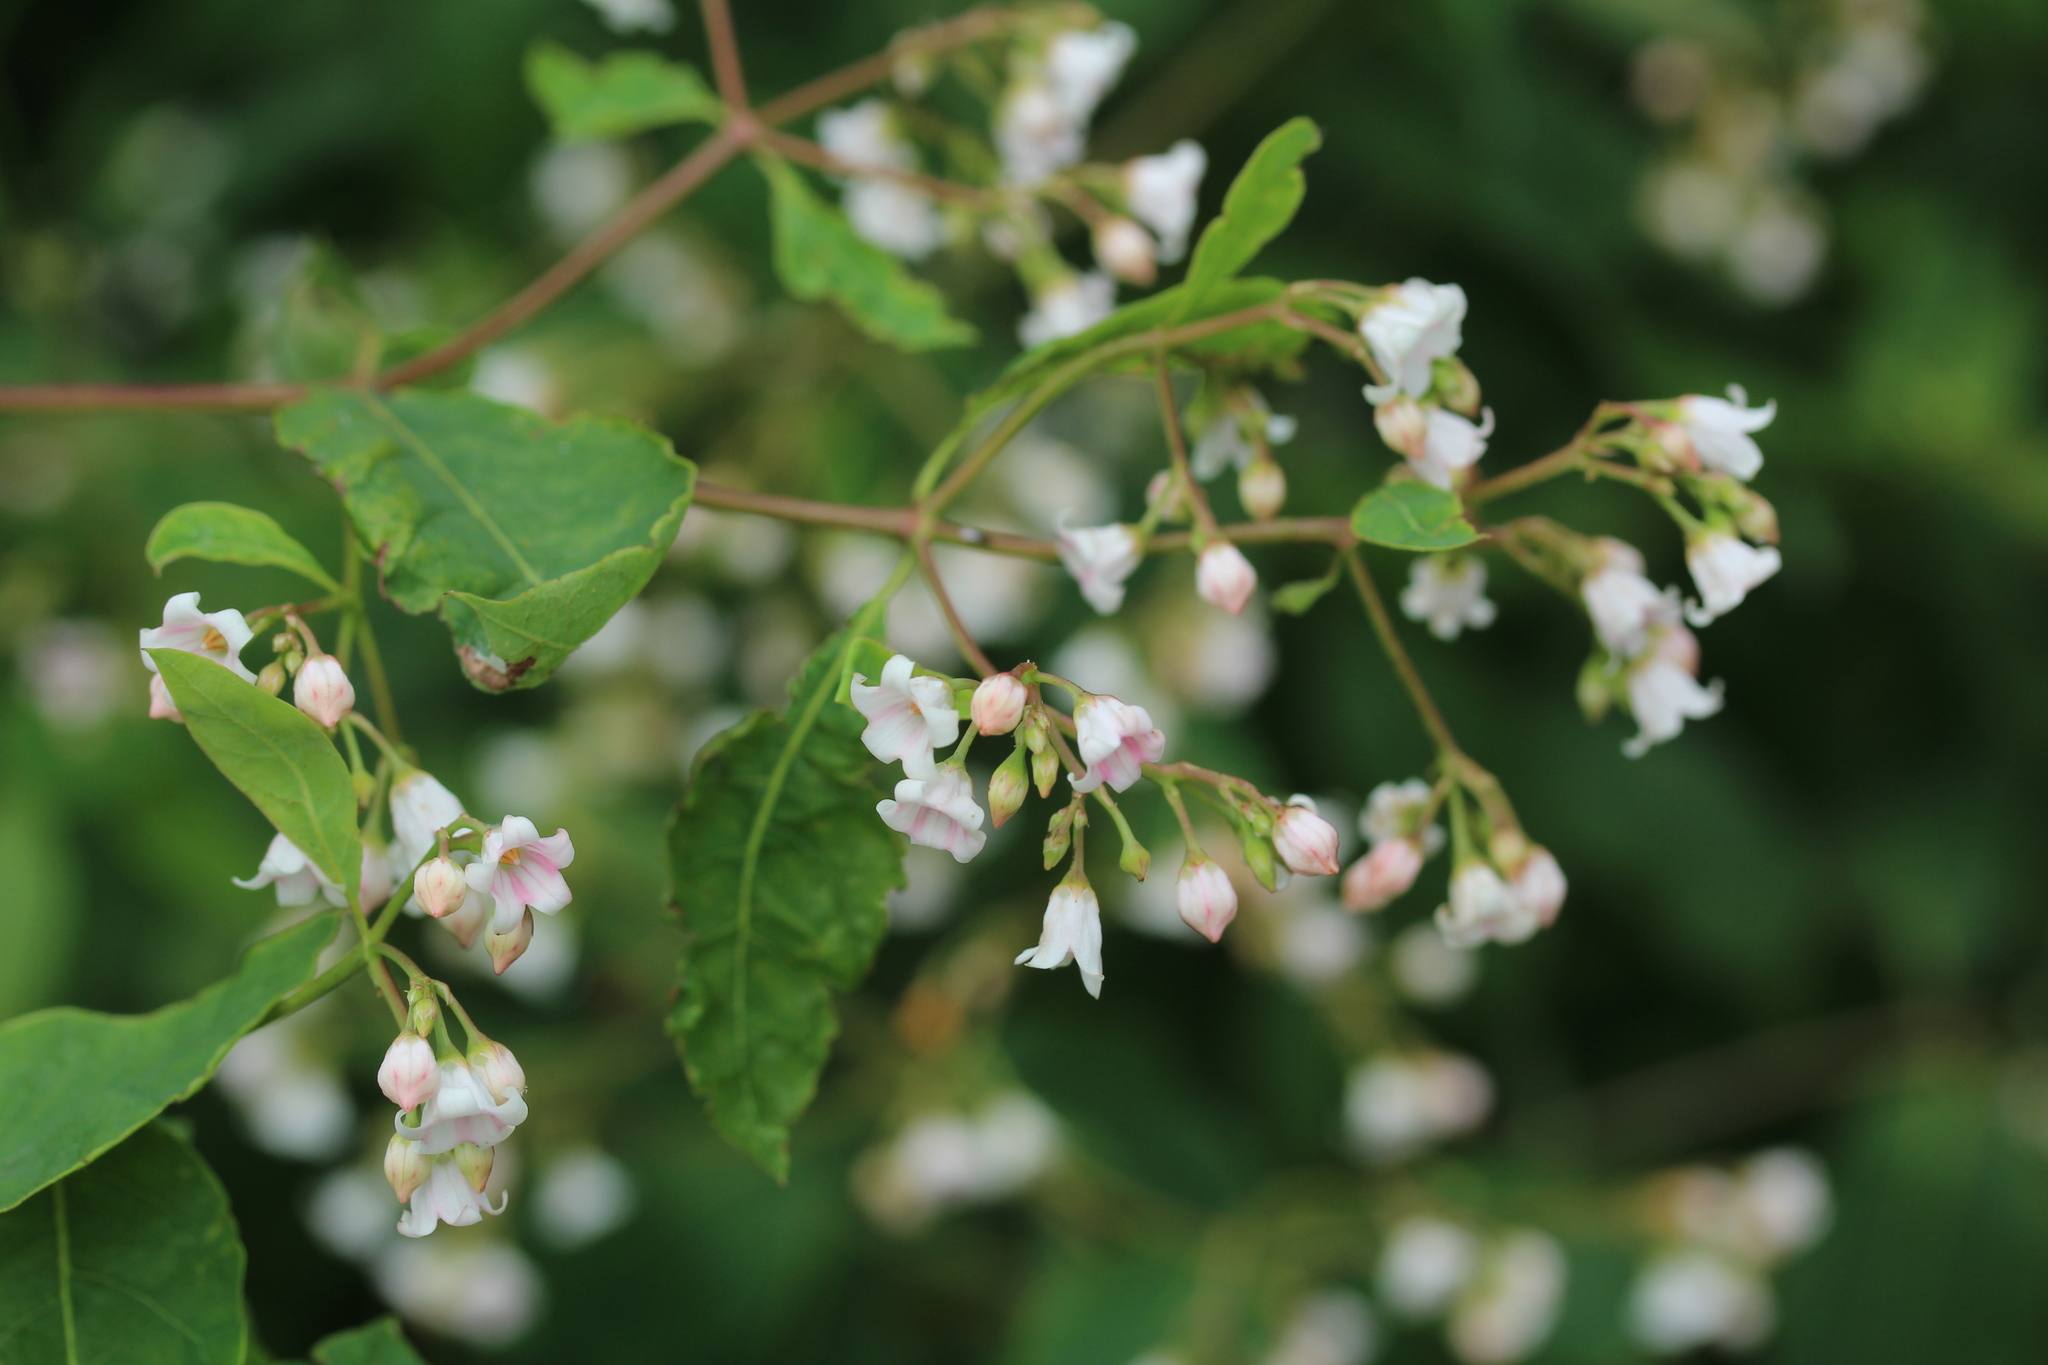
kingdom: Plantae
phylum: Tracheophyta
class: Magnoliopsida
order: Gentianales
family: Apocynaceae
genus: Apocynum
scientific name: Apocynum androsaemifolium
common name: Spreading dogbane
